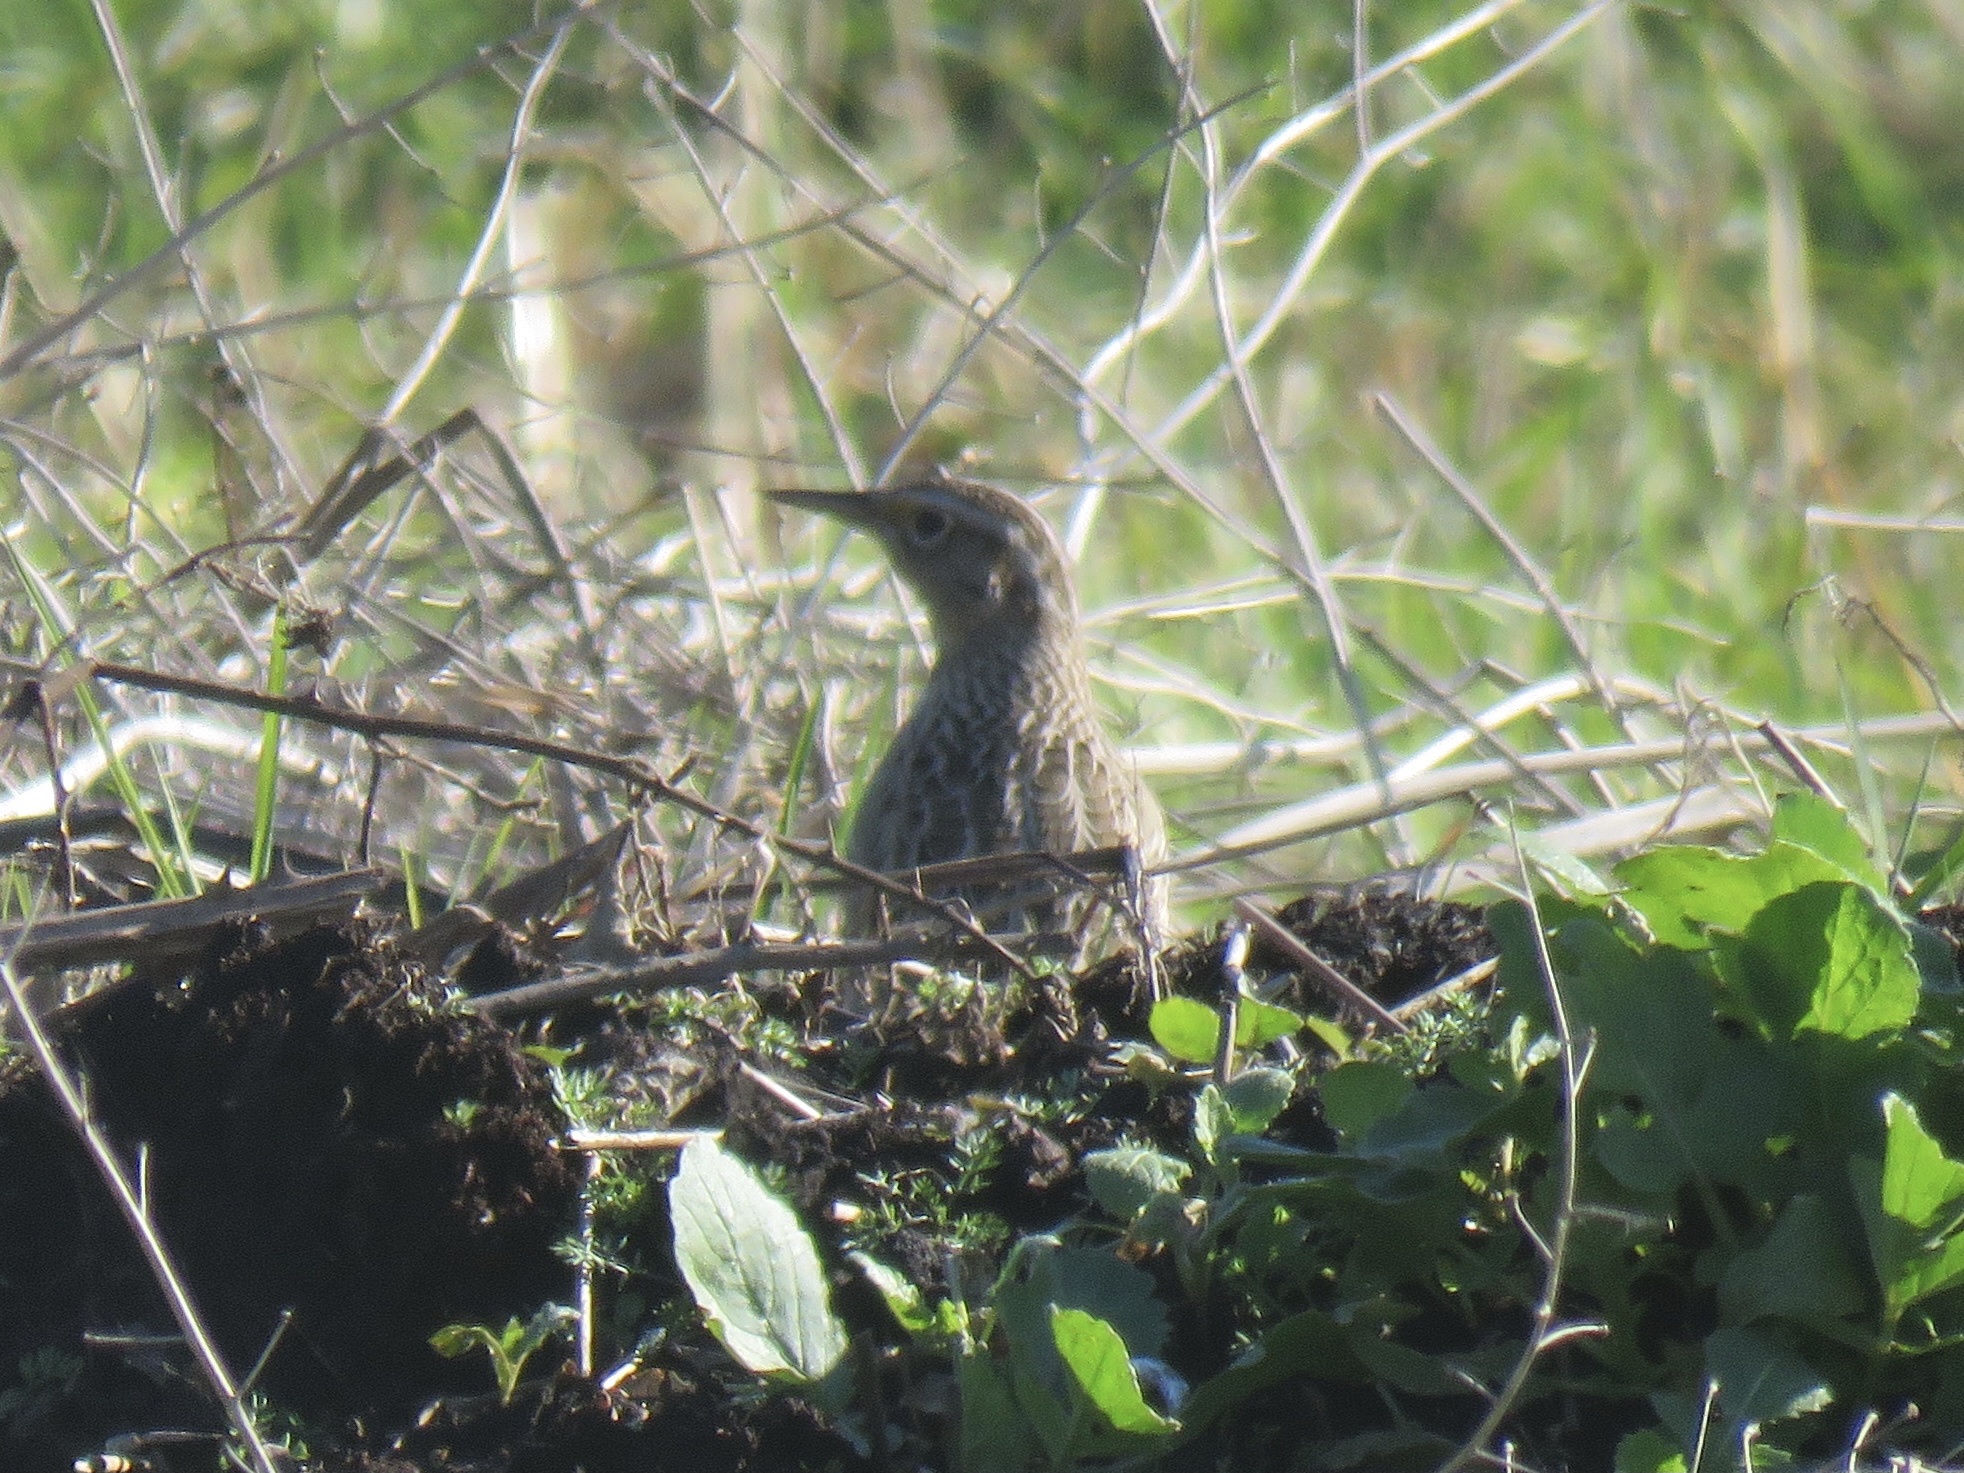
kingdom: Animalia
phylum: Chordata
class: Aves
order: Passeriformes
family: Icteridae
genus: Sturnella
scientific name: Sturnella neglecta
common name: Western meadowlark
